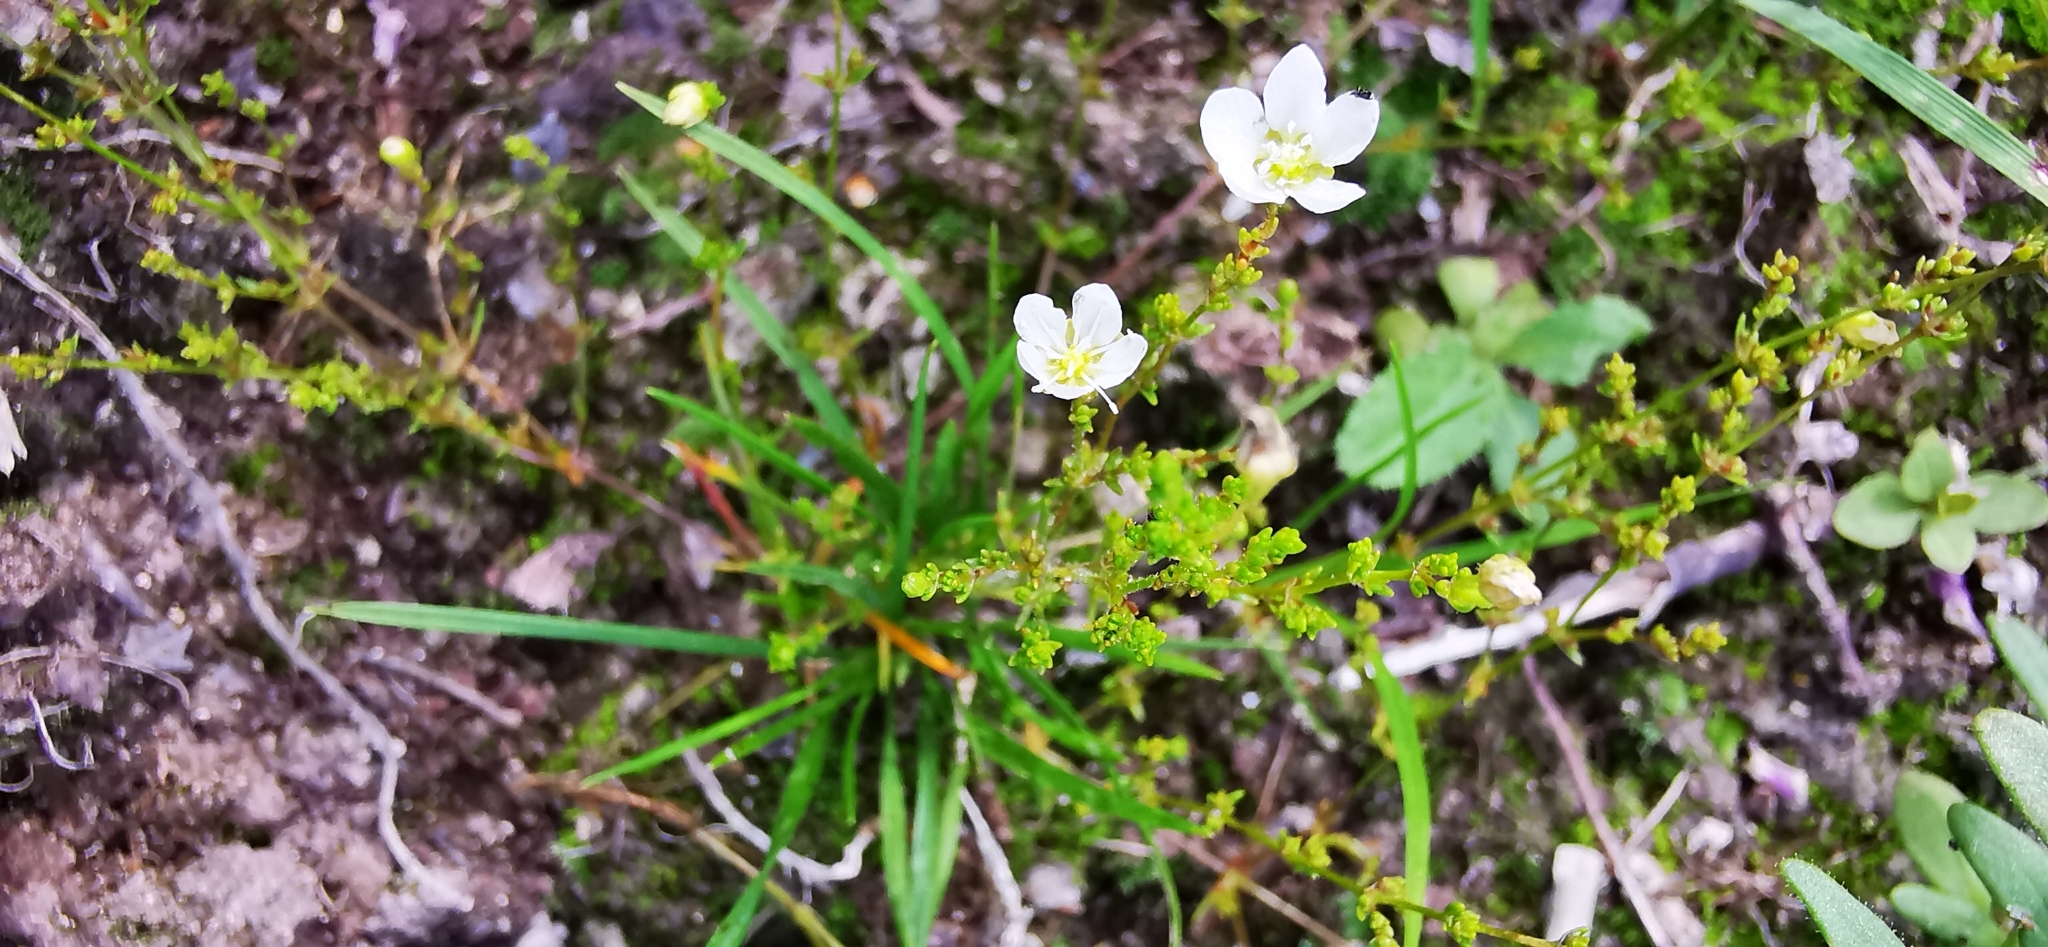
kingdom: Plantae
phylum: Tracheophyta
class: Magnoliopsida
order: Caryophyllales
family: Caryophyllaceae
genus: Sagina
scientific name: Sagina nodosa
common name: Knotted pearlwort
